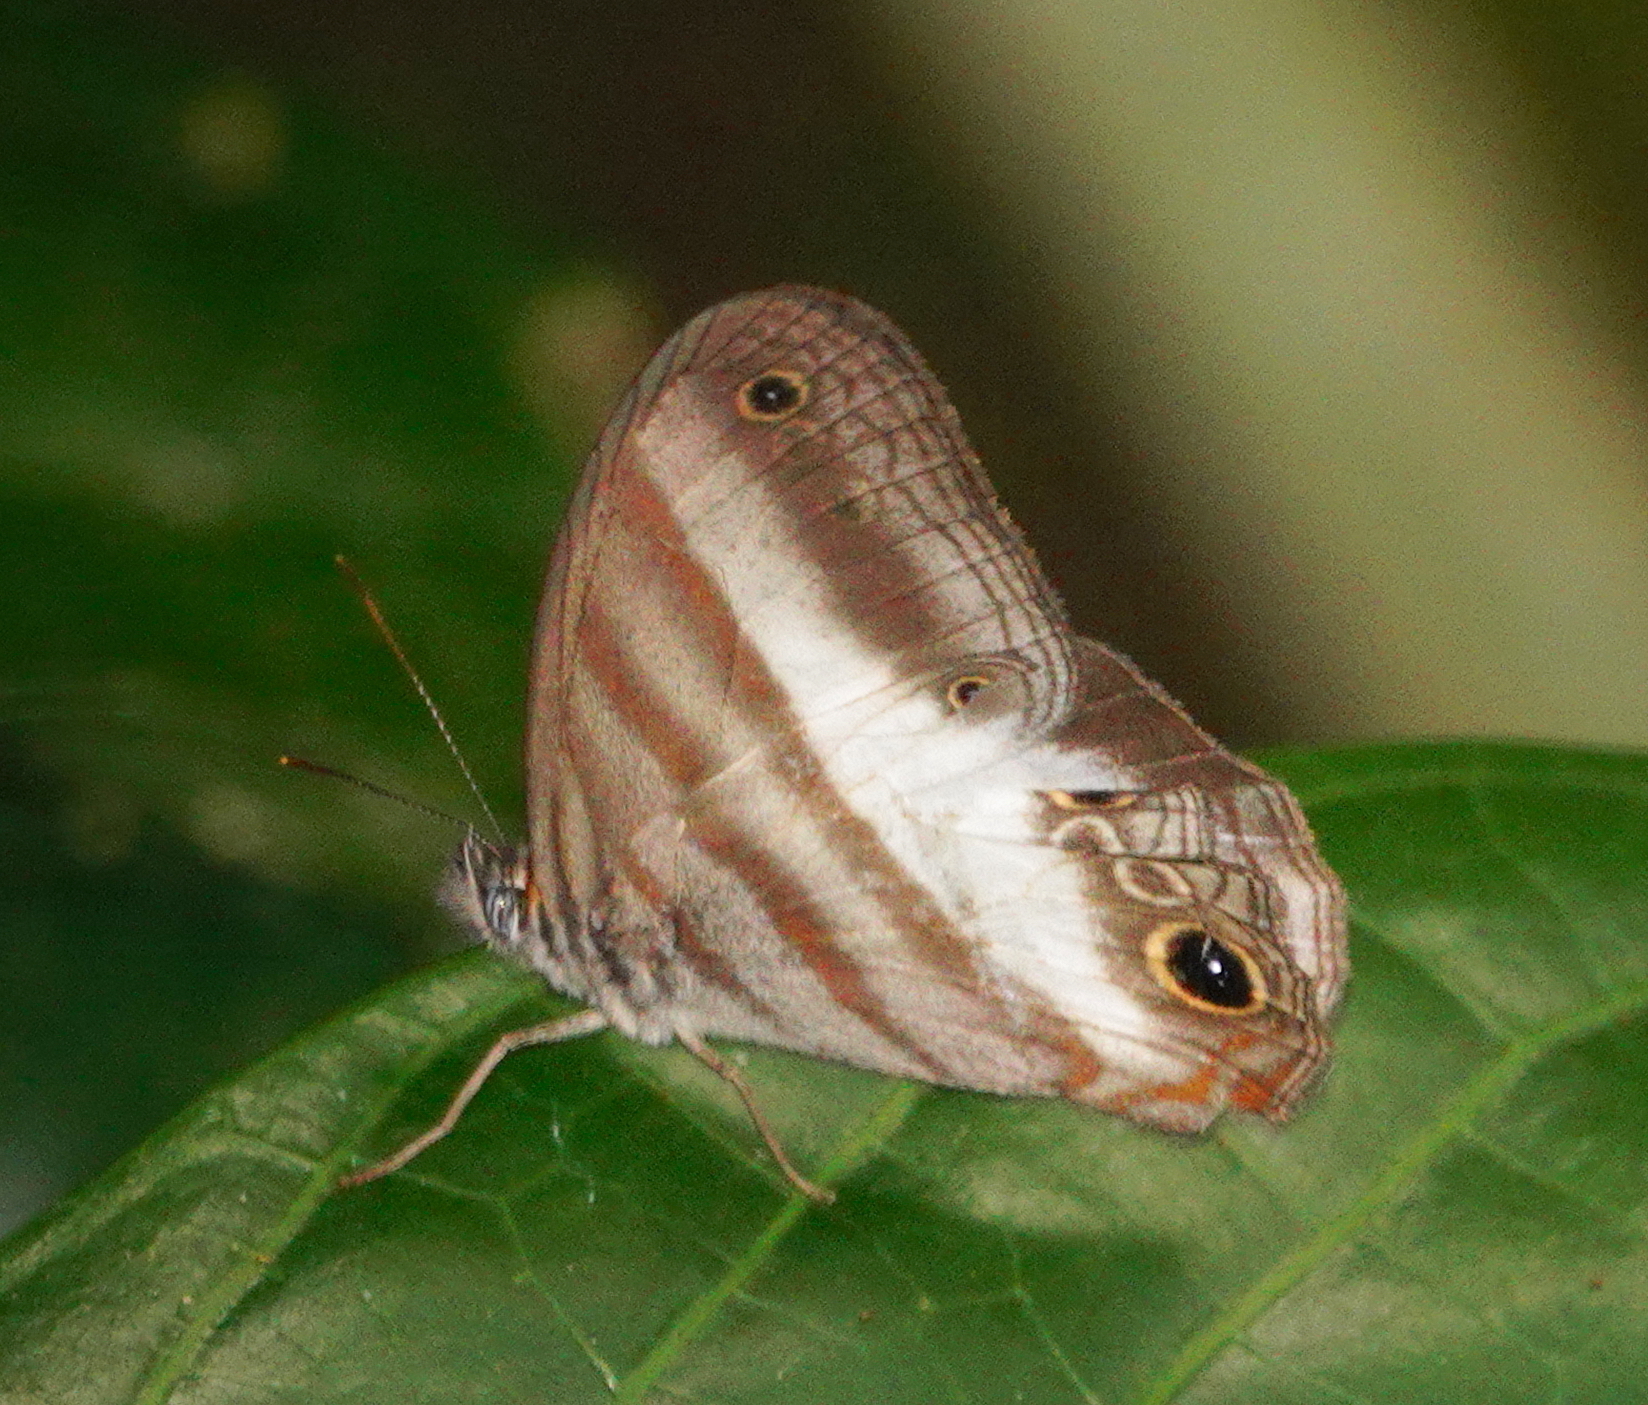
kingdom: Animalia
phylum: Arthropoda
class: Insecta
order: Lepidoptera
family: Nymphalidae
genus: Pareuptychia
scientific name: Pareuptychia metaleuca
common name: White-banded satyr
